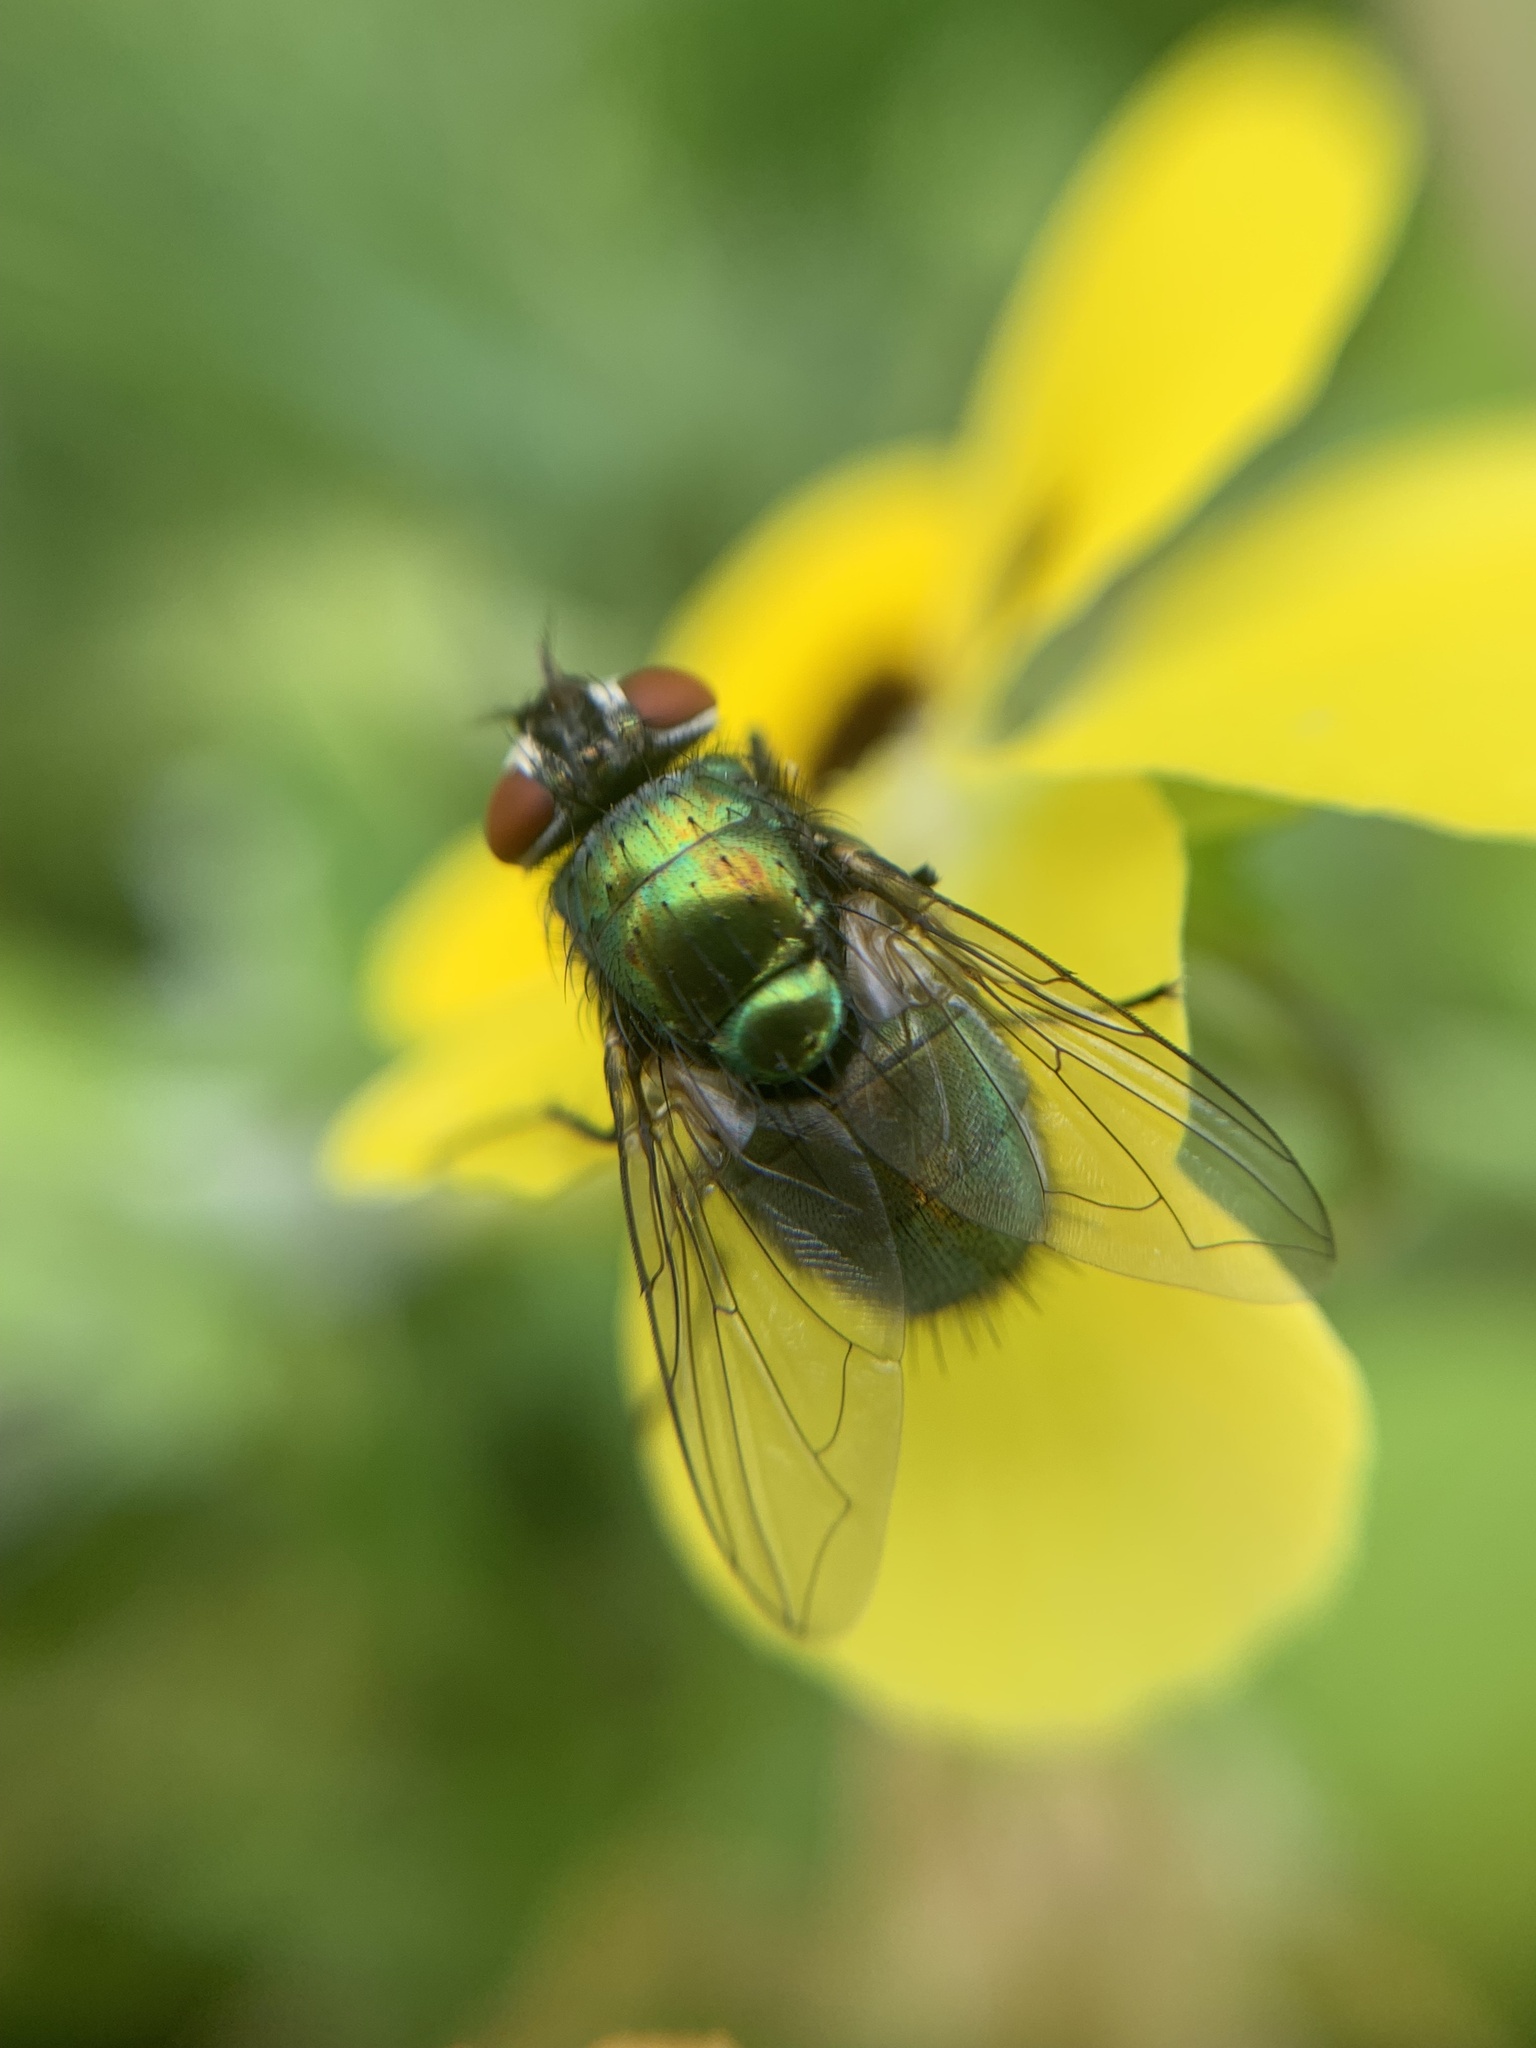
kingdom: Animalia
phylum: Arthropoda
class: Insecta
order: Diptera
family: Calliphoridae
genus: Lucilia
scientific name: Lucilia
